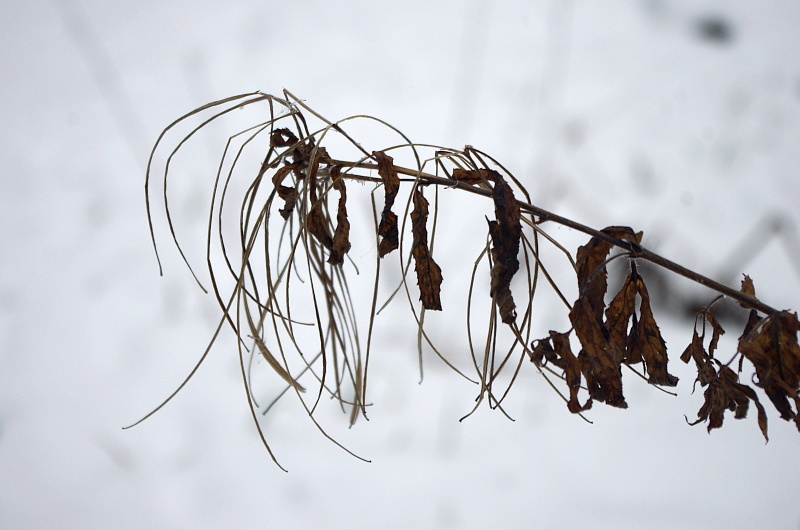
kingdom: Plantae
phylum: Tracheophyta
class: Magnoliopsida
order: Myrtales
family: Onagraceae
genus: Chamaenerion
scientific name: Chamaenerion angustifolium
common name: Fireweed
